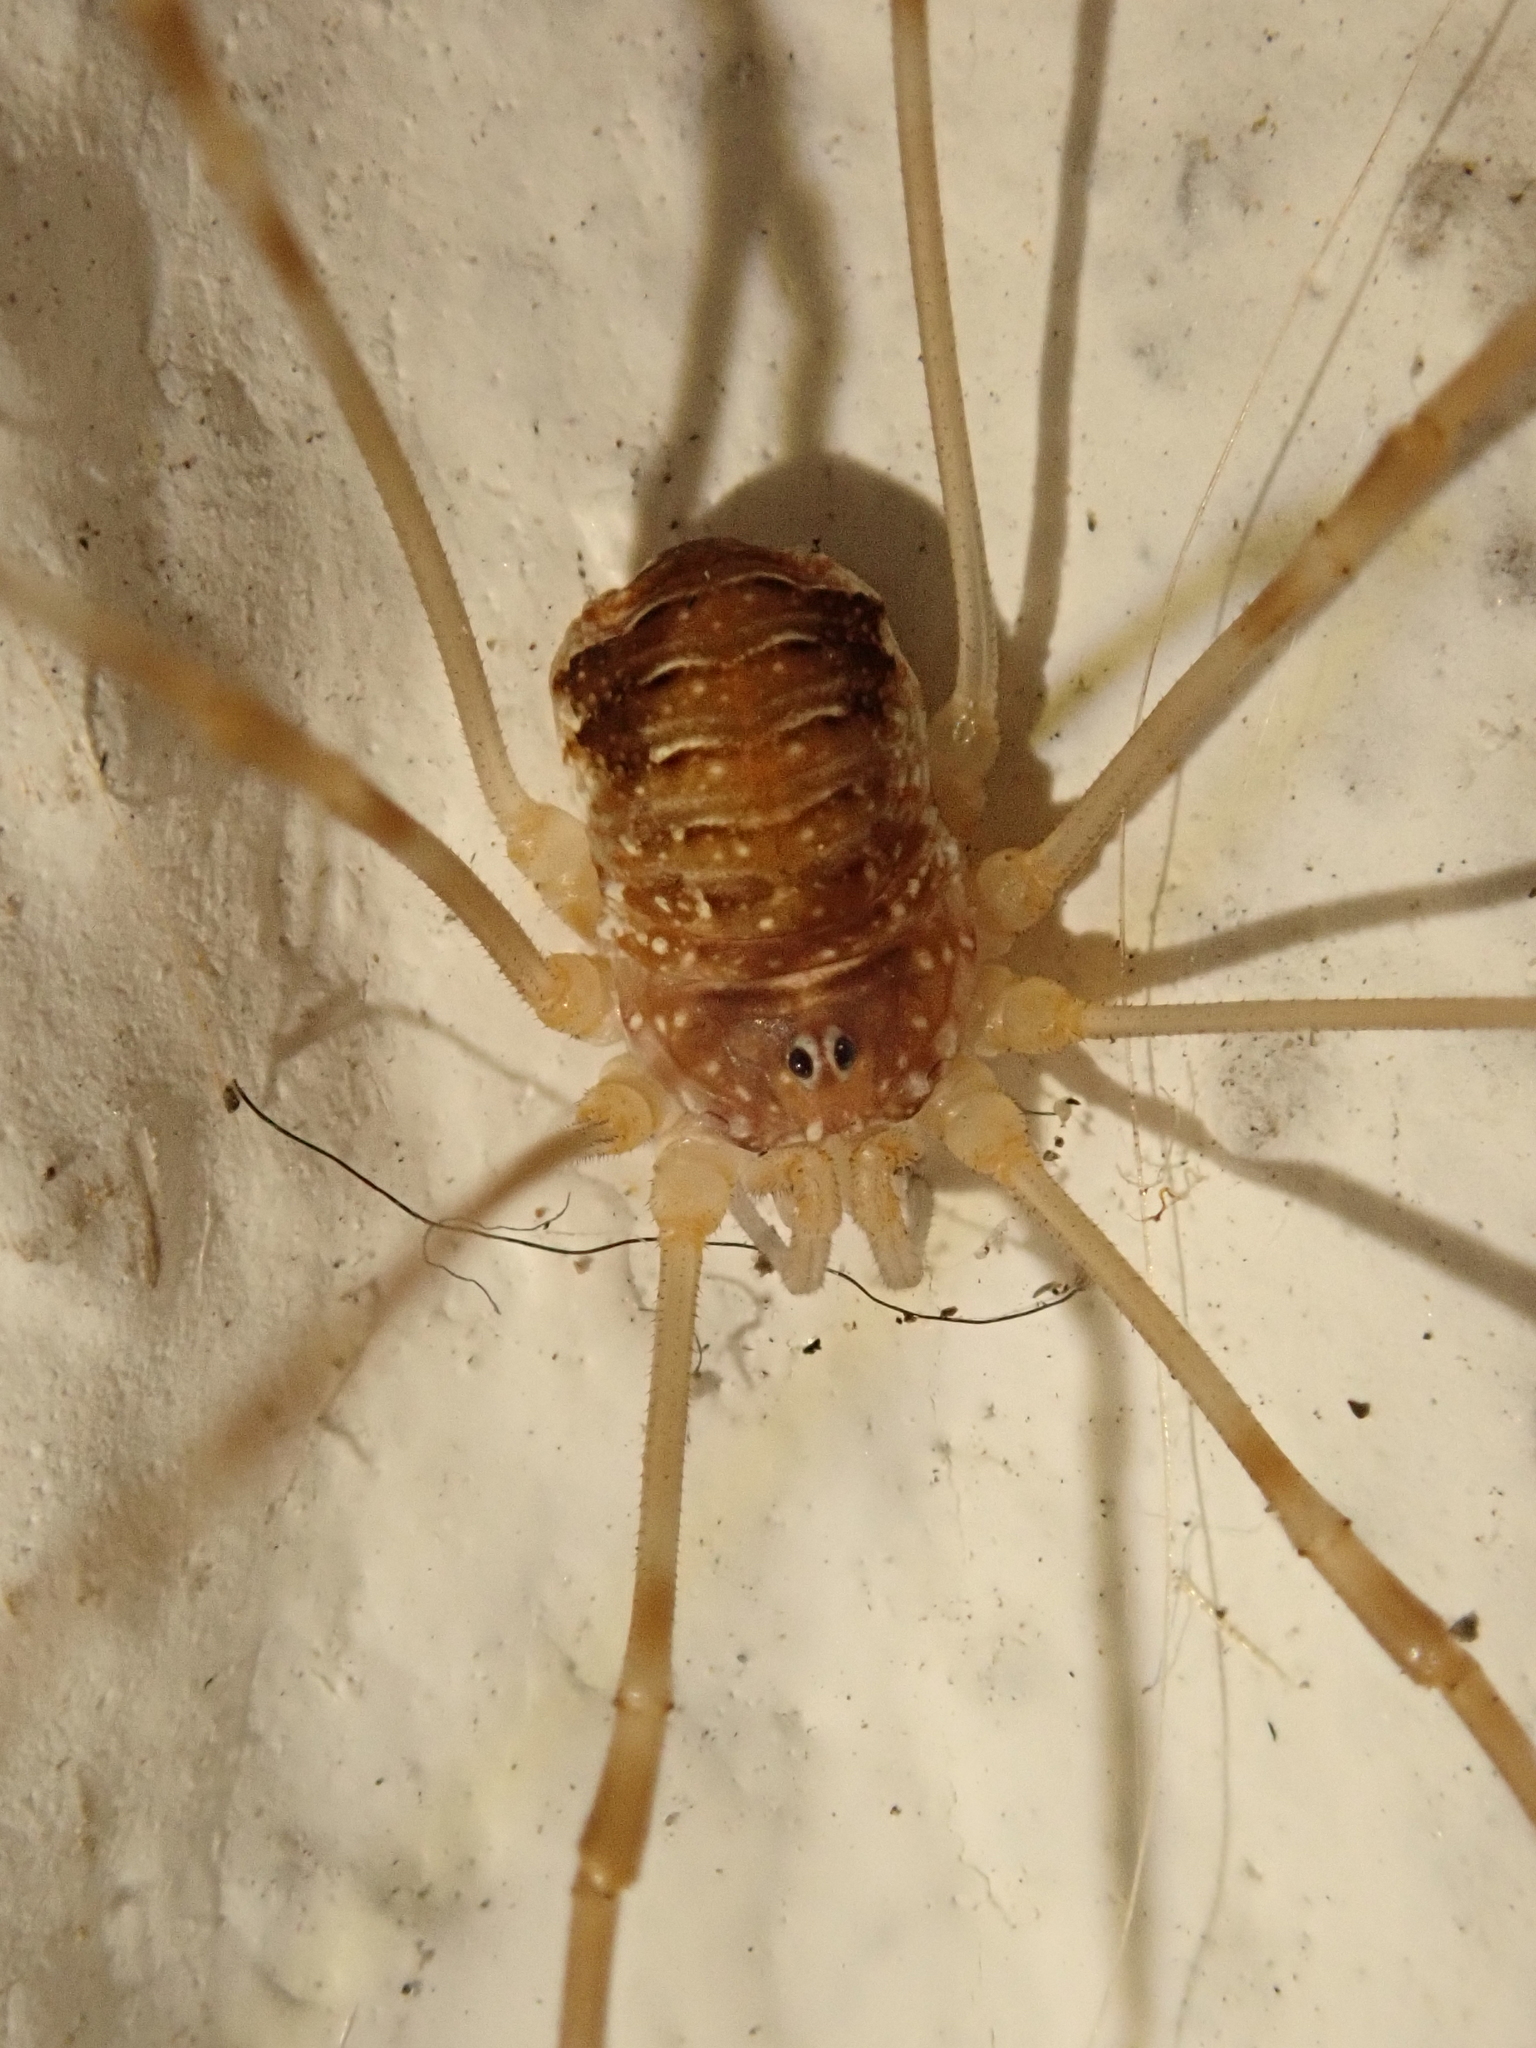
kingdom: Animalia
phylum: Arthropoda
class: Arachnida
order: Opiliones
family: Phalangiidae
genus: Opilio
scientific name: Opilio canestrinii
